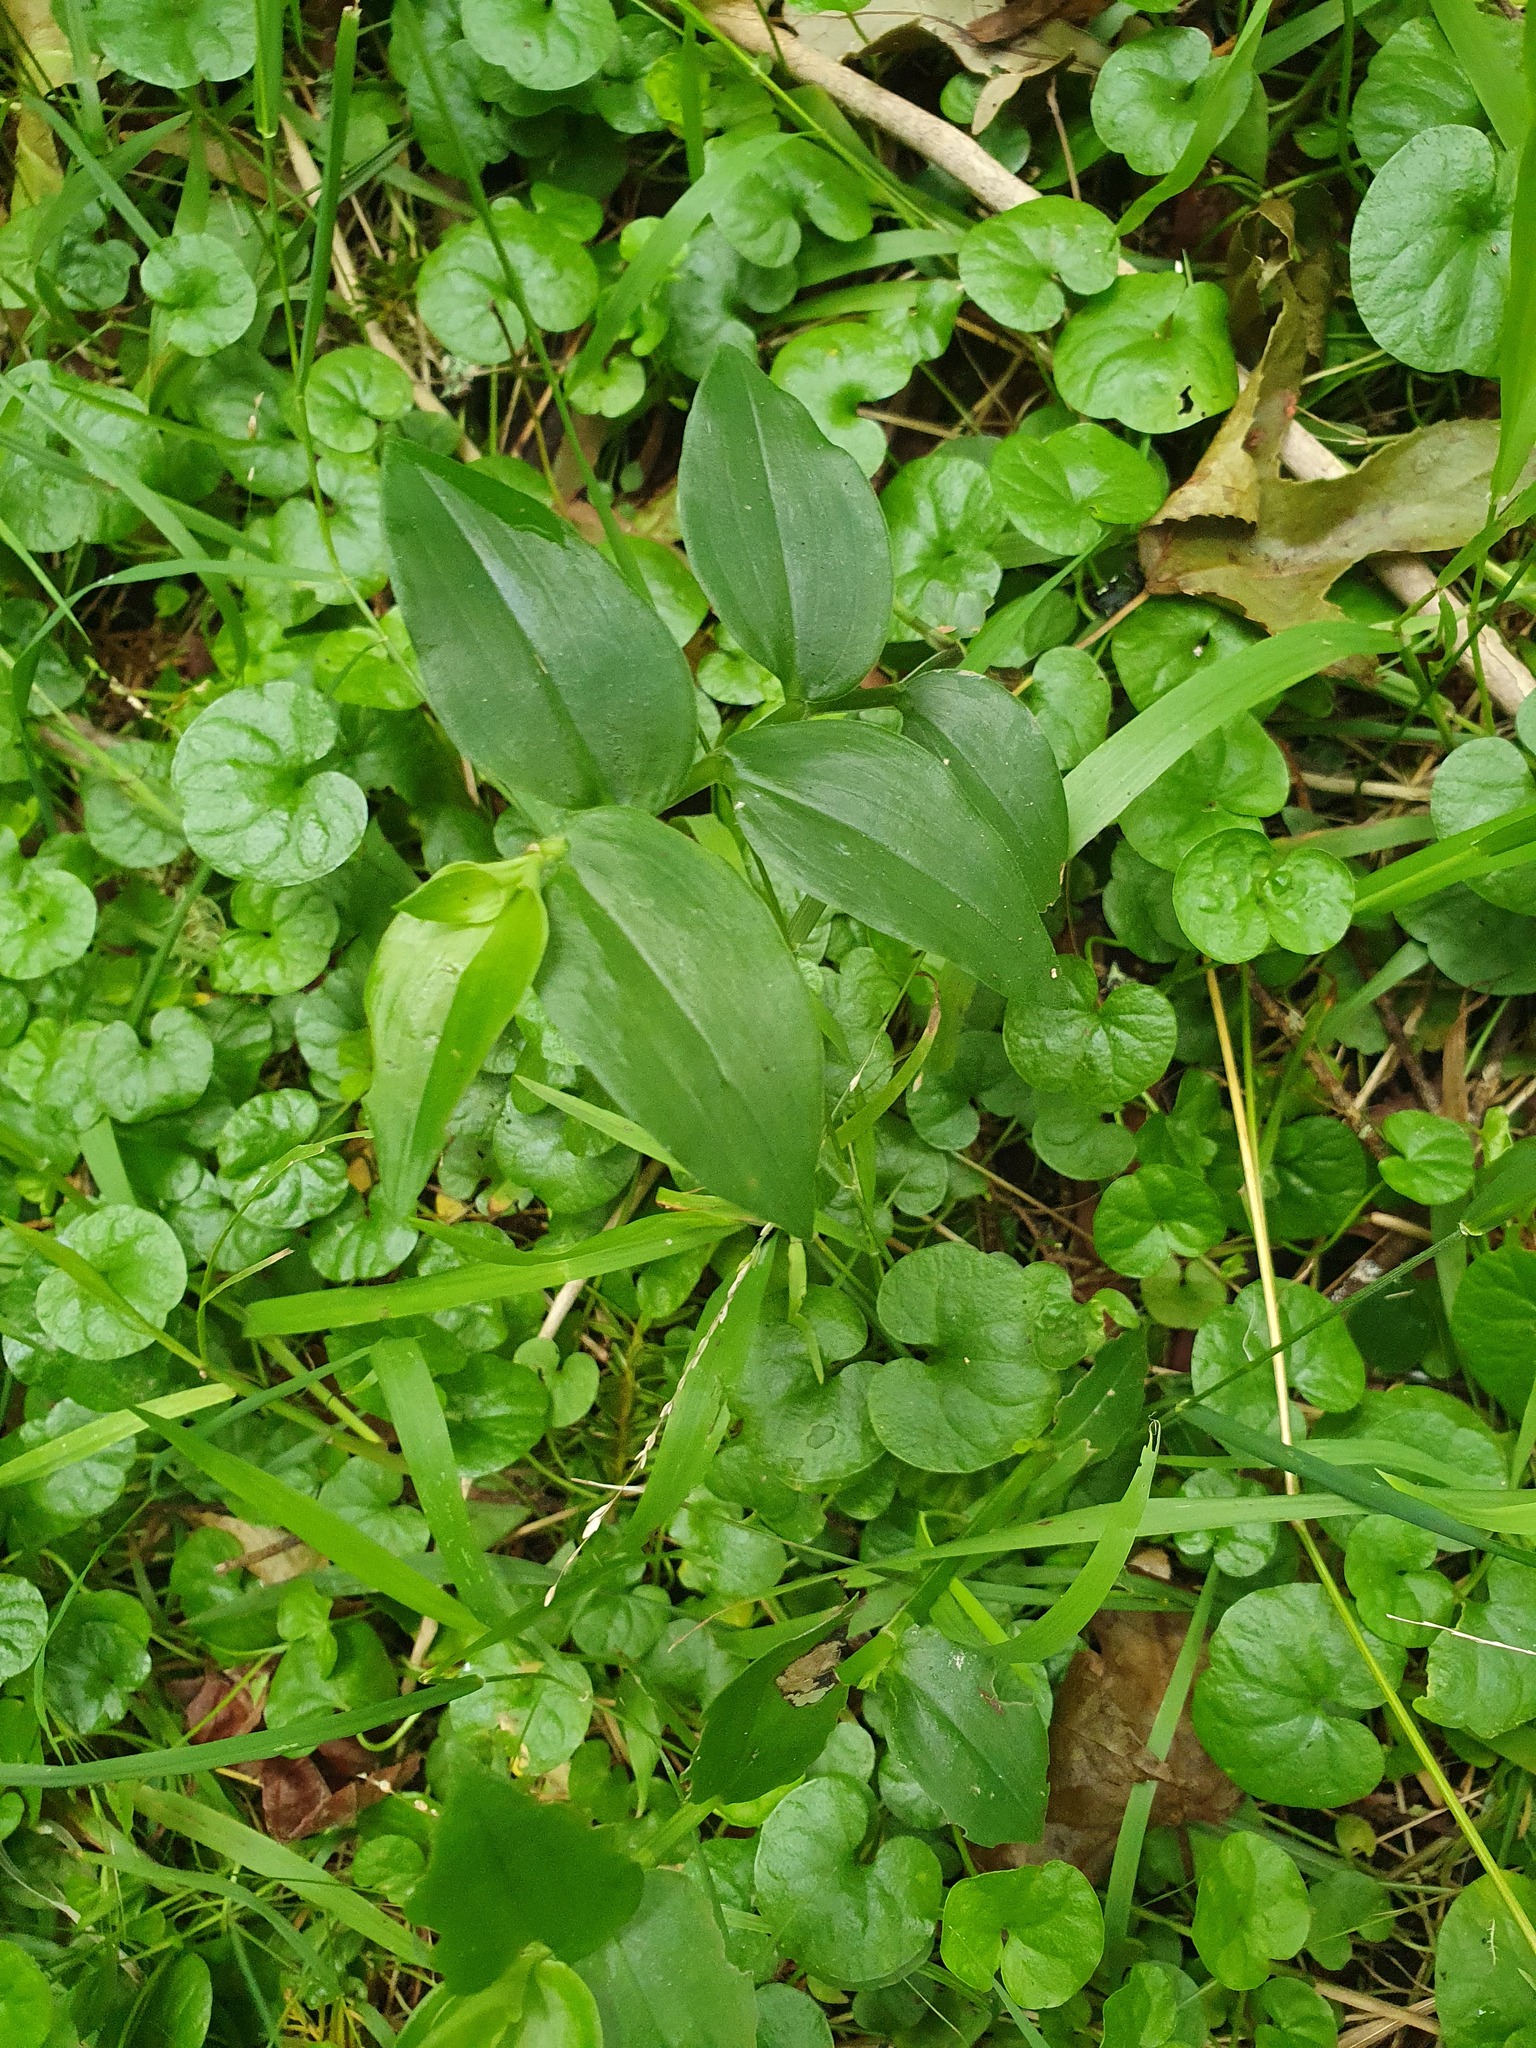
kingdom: Plantae
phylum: Tracheophyta
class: Liliopsida
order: Commelinales
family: Commelinaceae
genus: Tradescantia
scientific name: Tradescantia fluminensis
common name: Wandering-jew
